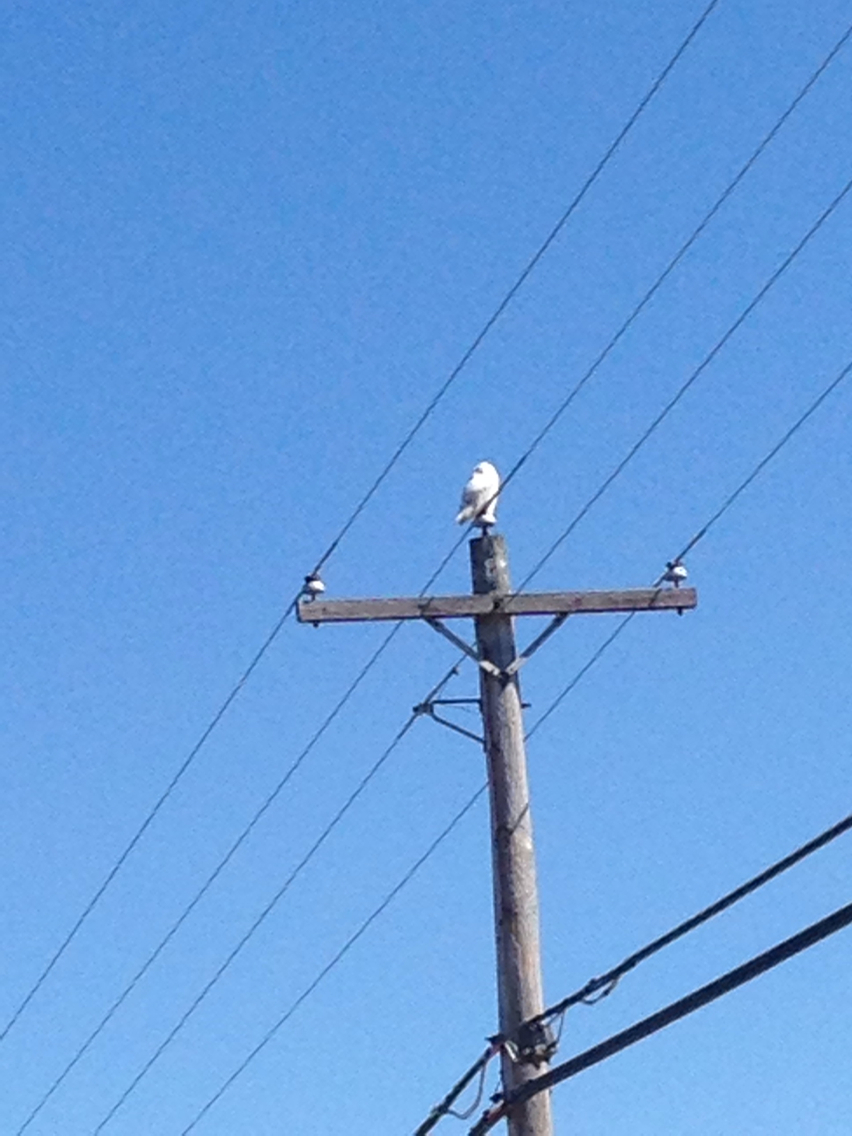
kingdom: Animalia
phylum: Chordata
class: Aves
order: Strigiformes
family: Strigidae
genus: Bubo
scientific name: Bubo scandiacus
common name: Snowy owl
